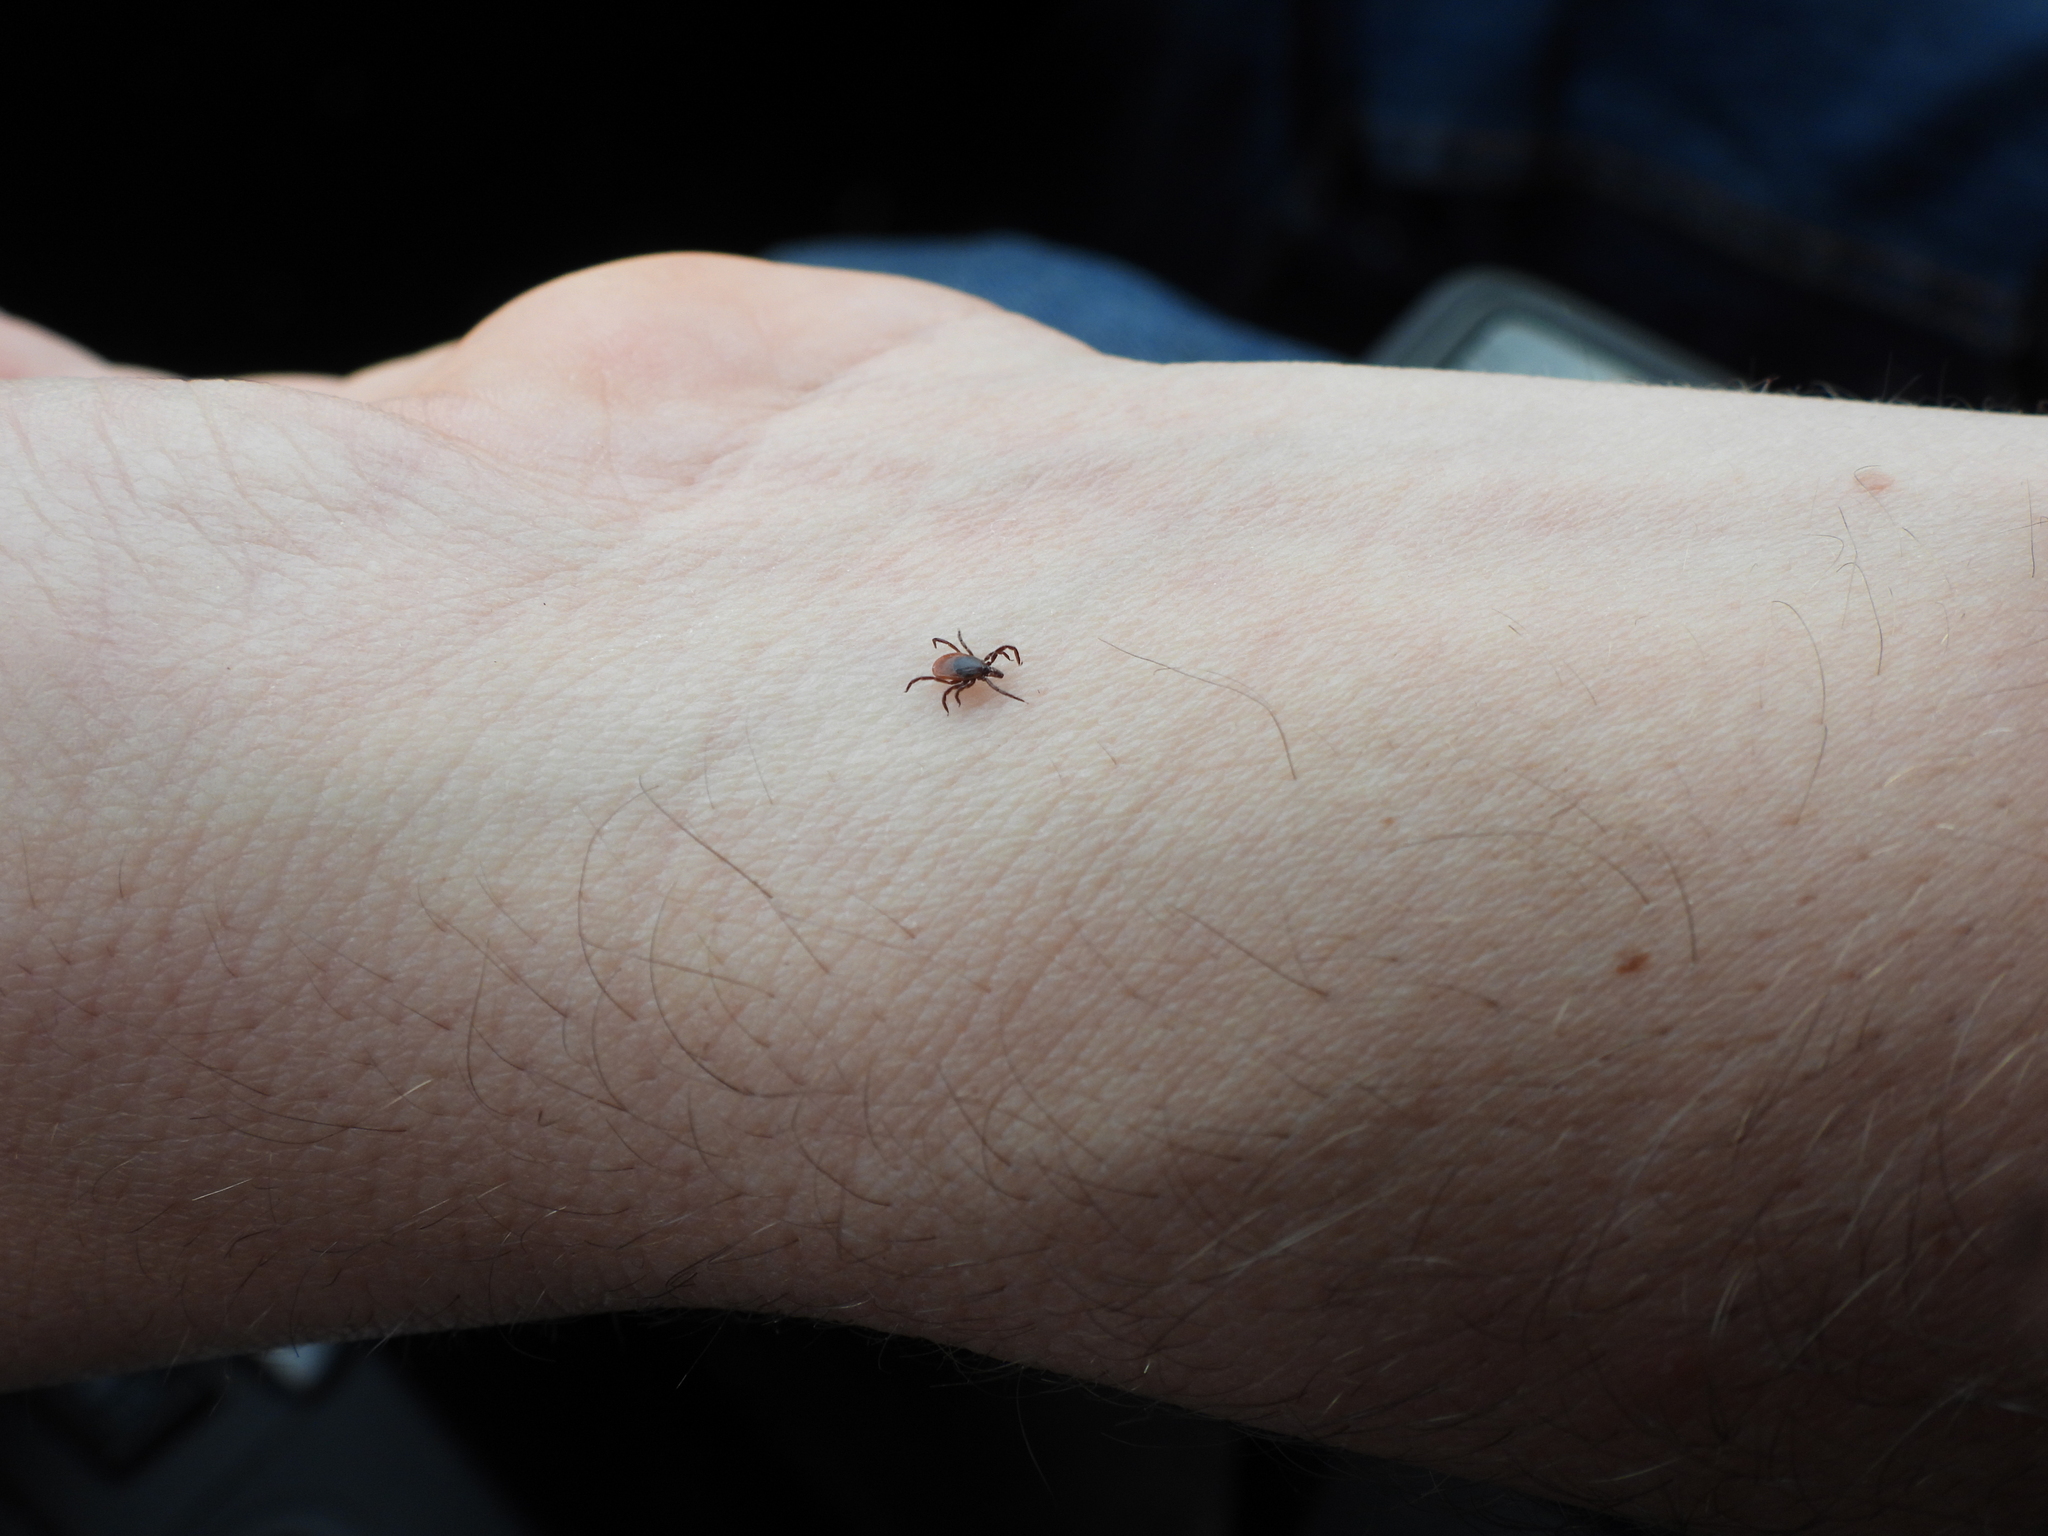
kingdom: Animalia
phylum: Arthropoda
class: Arachnida
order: Ixodida
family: Ixodidae
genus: Ixodes
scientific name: Ixodes scapularis
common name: Black legged tick
